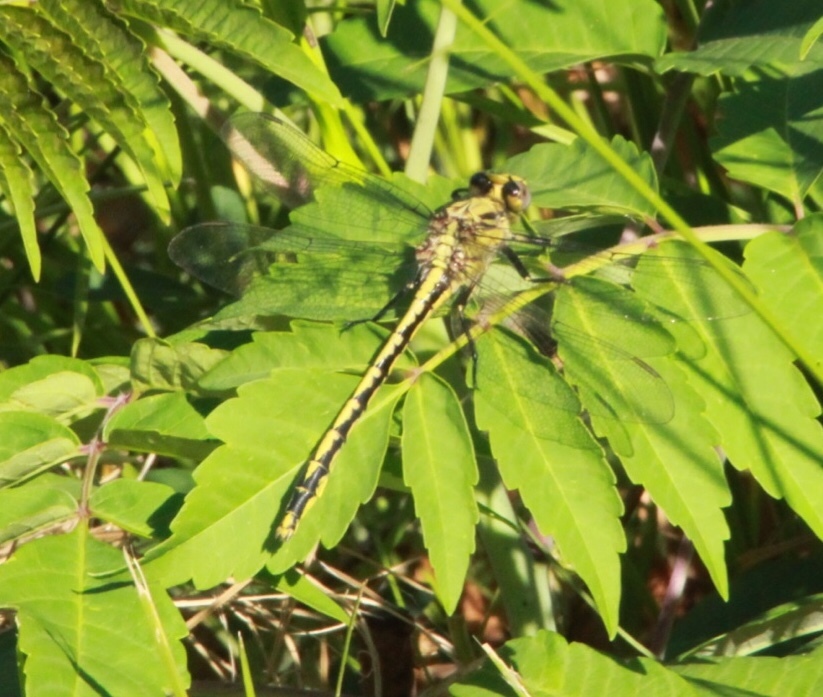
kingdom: Animalia
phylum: Arthropoda
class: Insecta
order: Odonata
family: Gomphidae
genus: Arigomphus
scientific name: Arigomphus cornutus
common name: Horned clubtail
